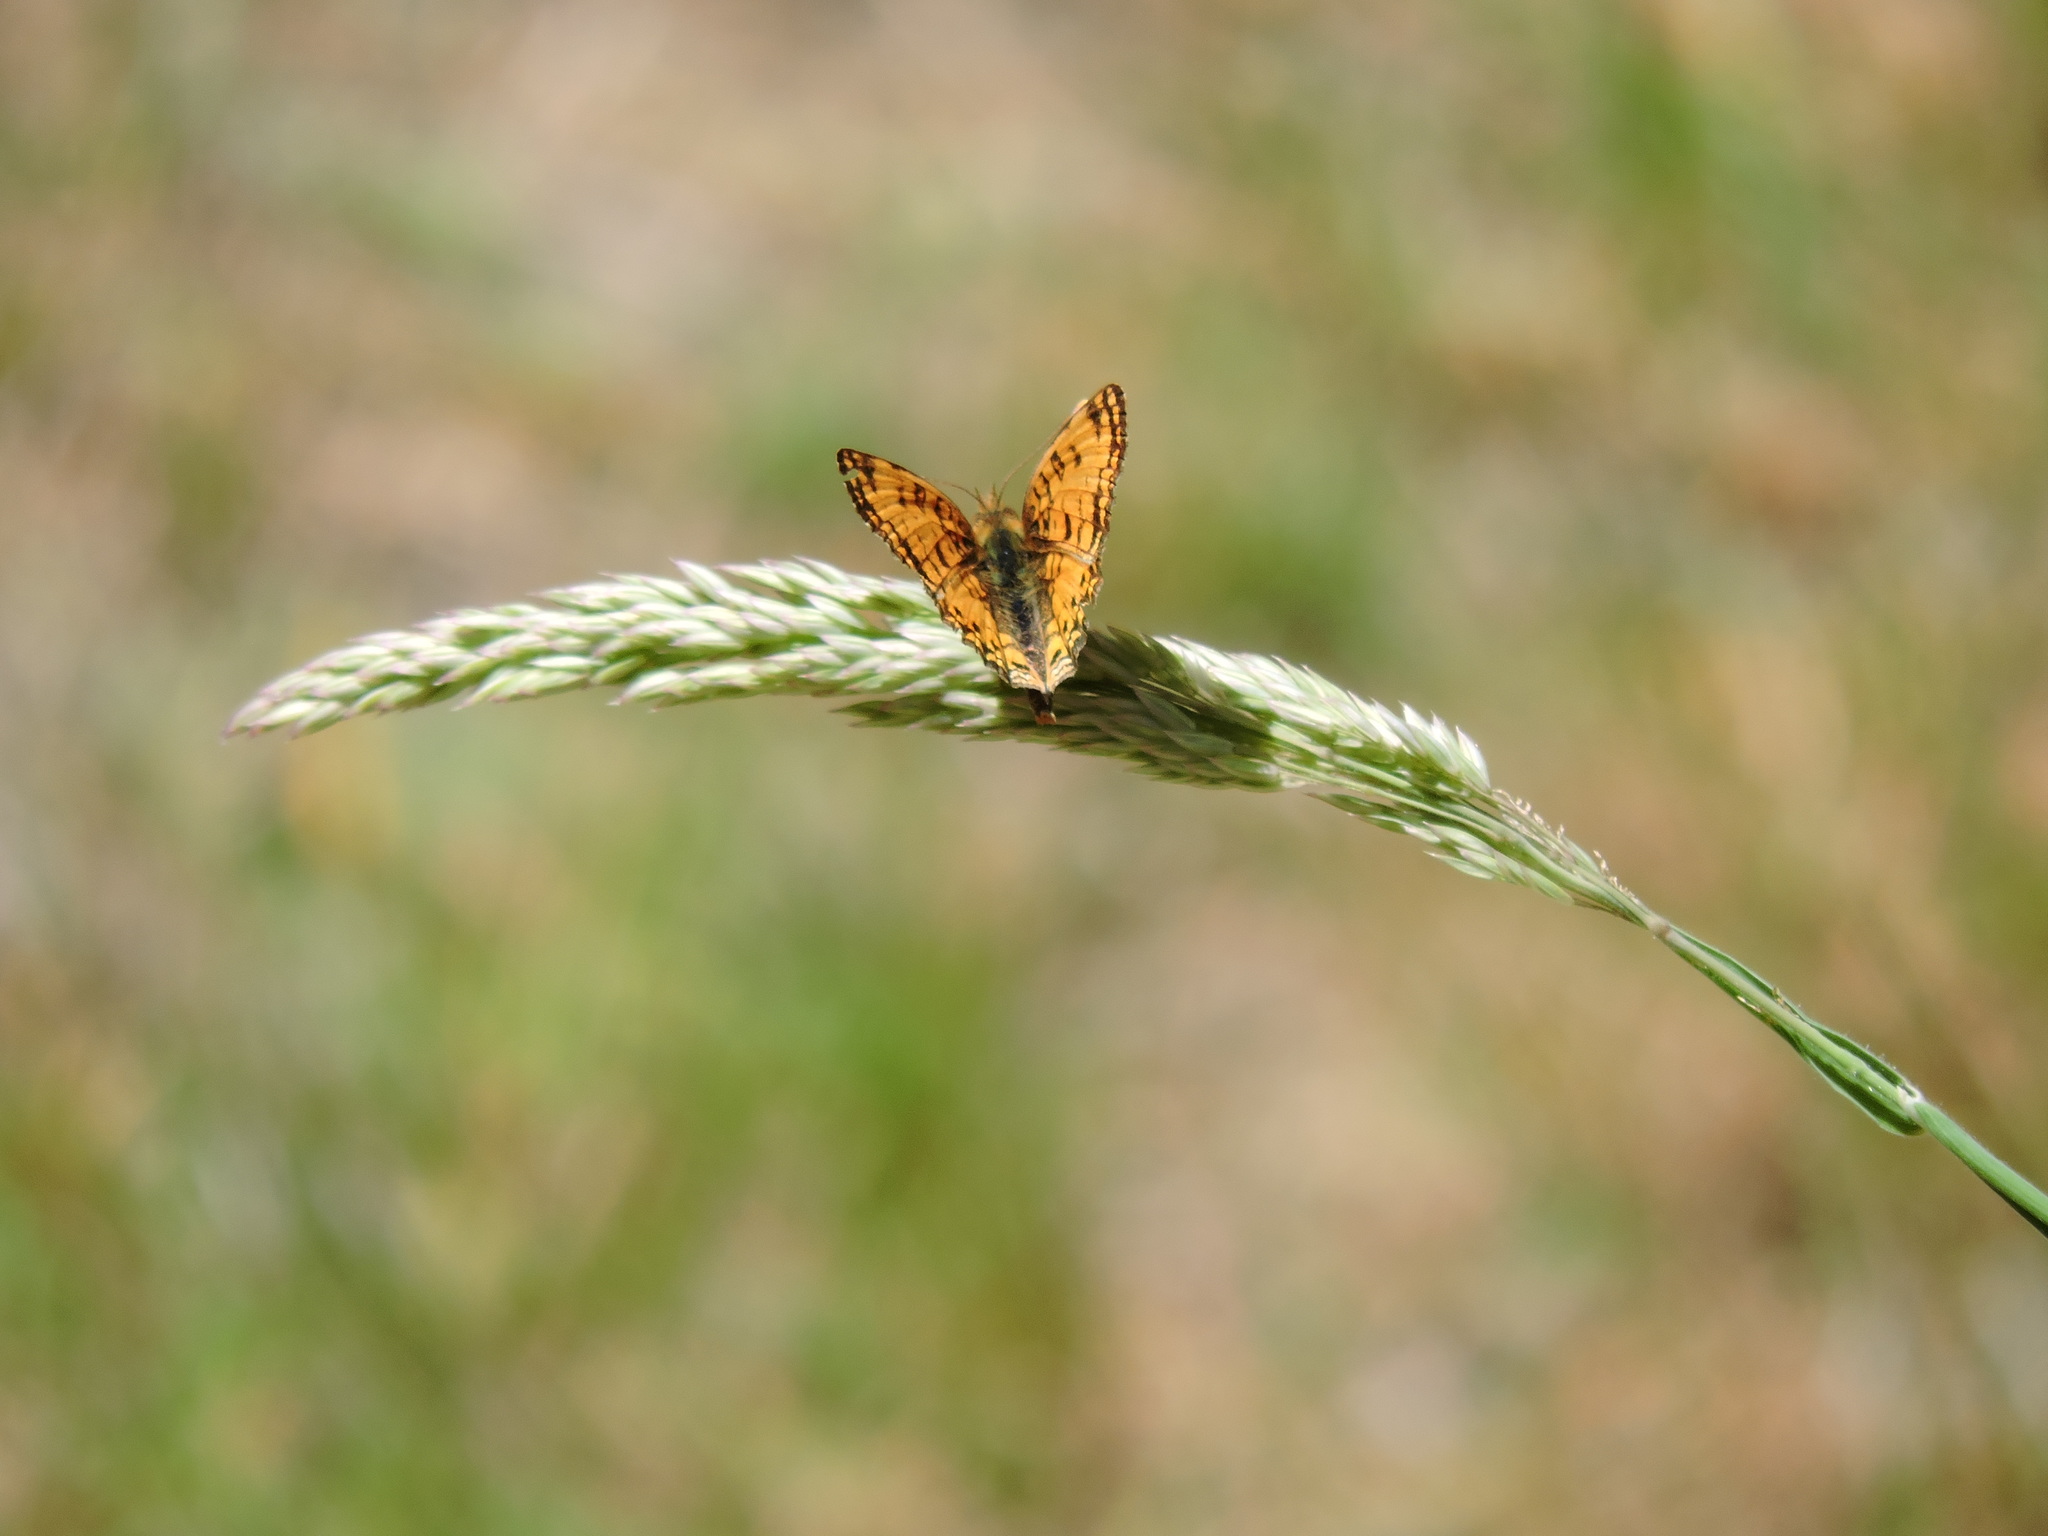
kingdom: Animalia
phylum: Arthropoda
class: Insecta
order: Lepidoptera
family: Nymphalidae
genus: Eresia
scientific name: Eresia aveyrona
